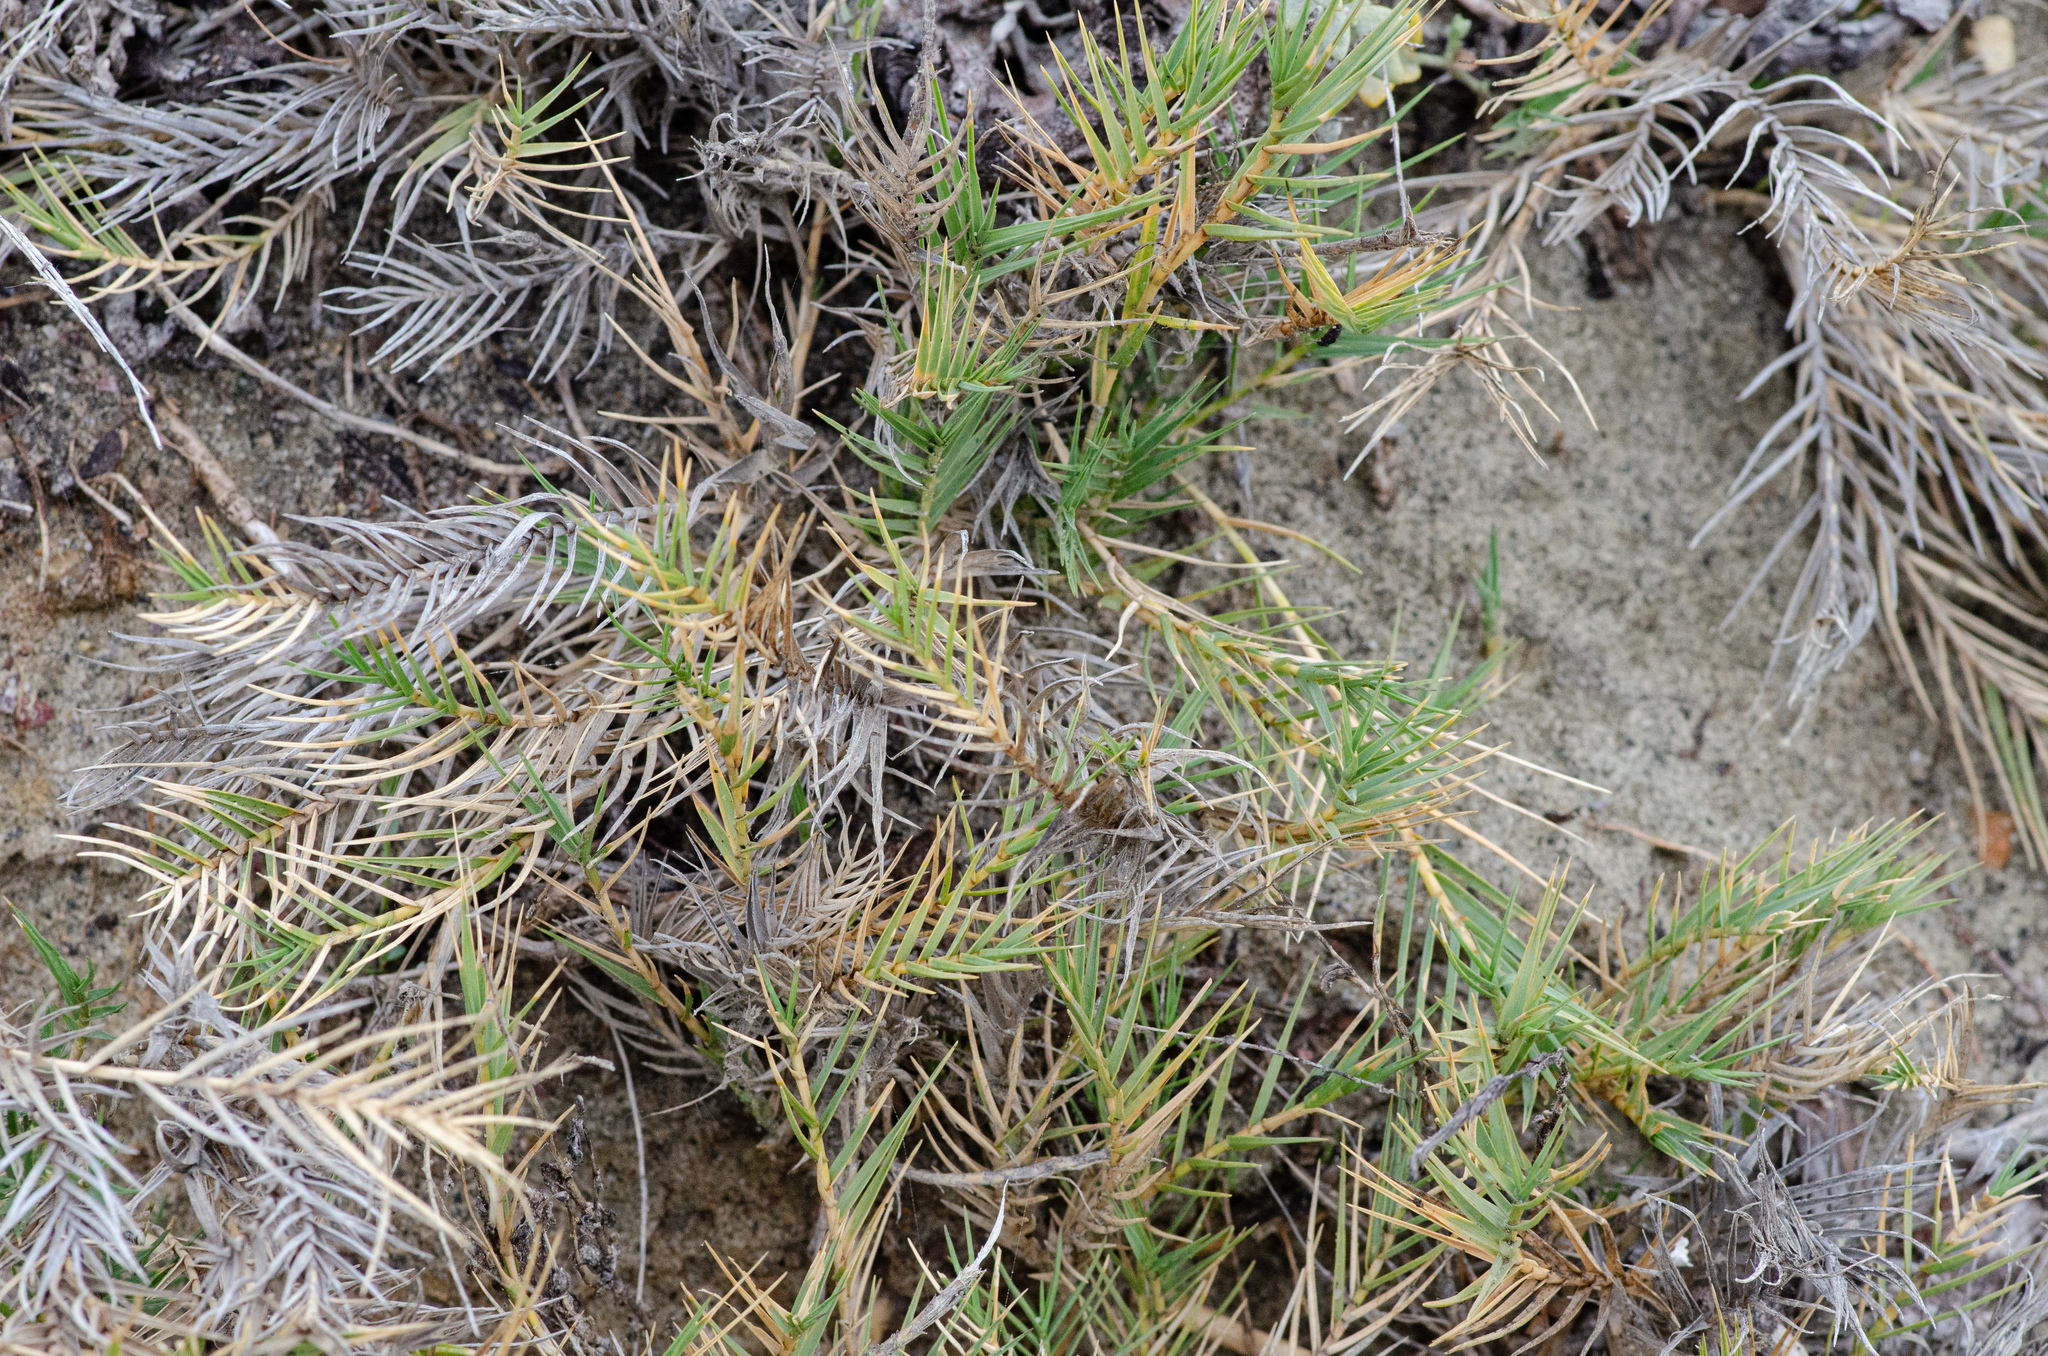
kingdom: Plantae
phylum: Tracheophyta
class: Liliopsida
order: Poales
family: Poaceae
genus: Distichlis
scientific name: Distichlis spicata
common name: Saltgrass
